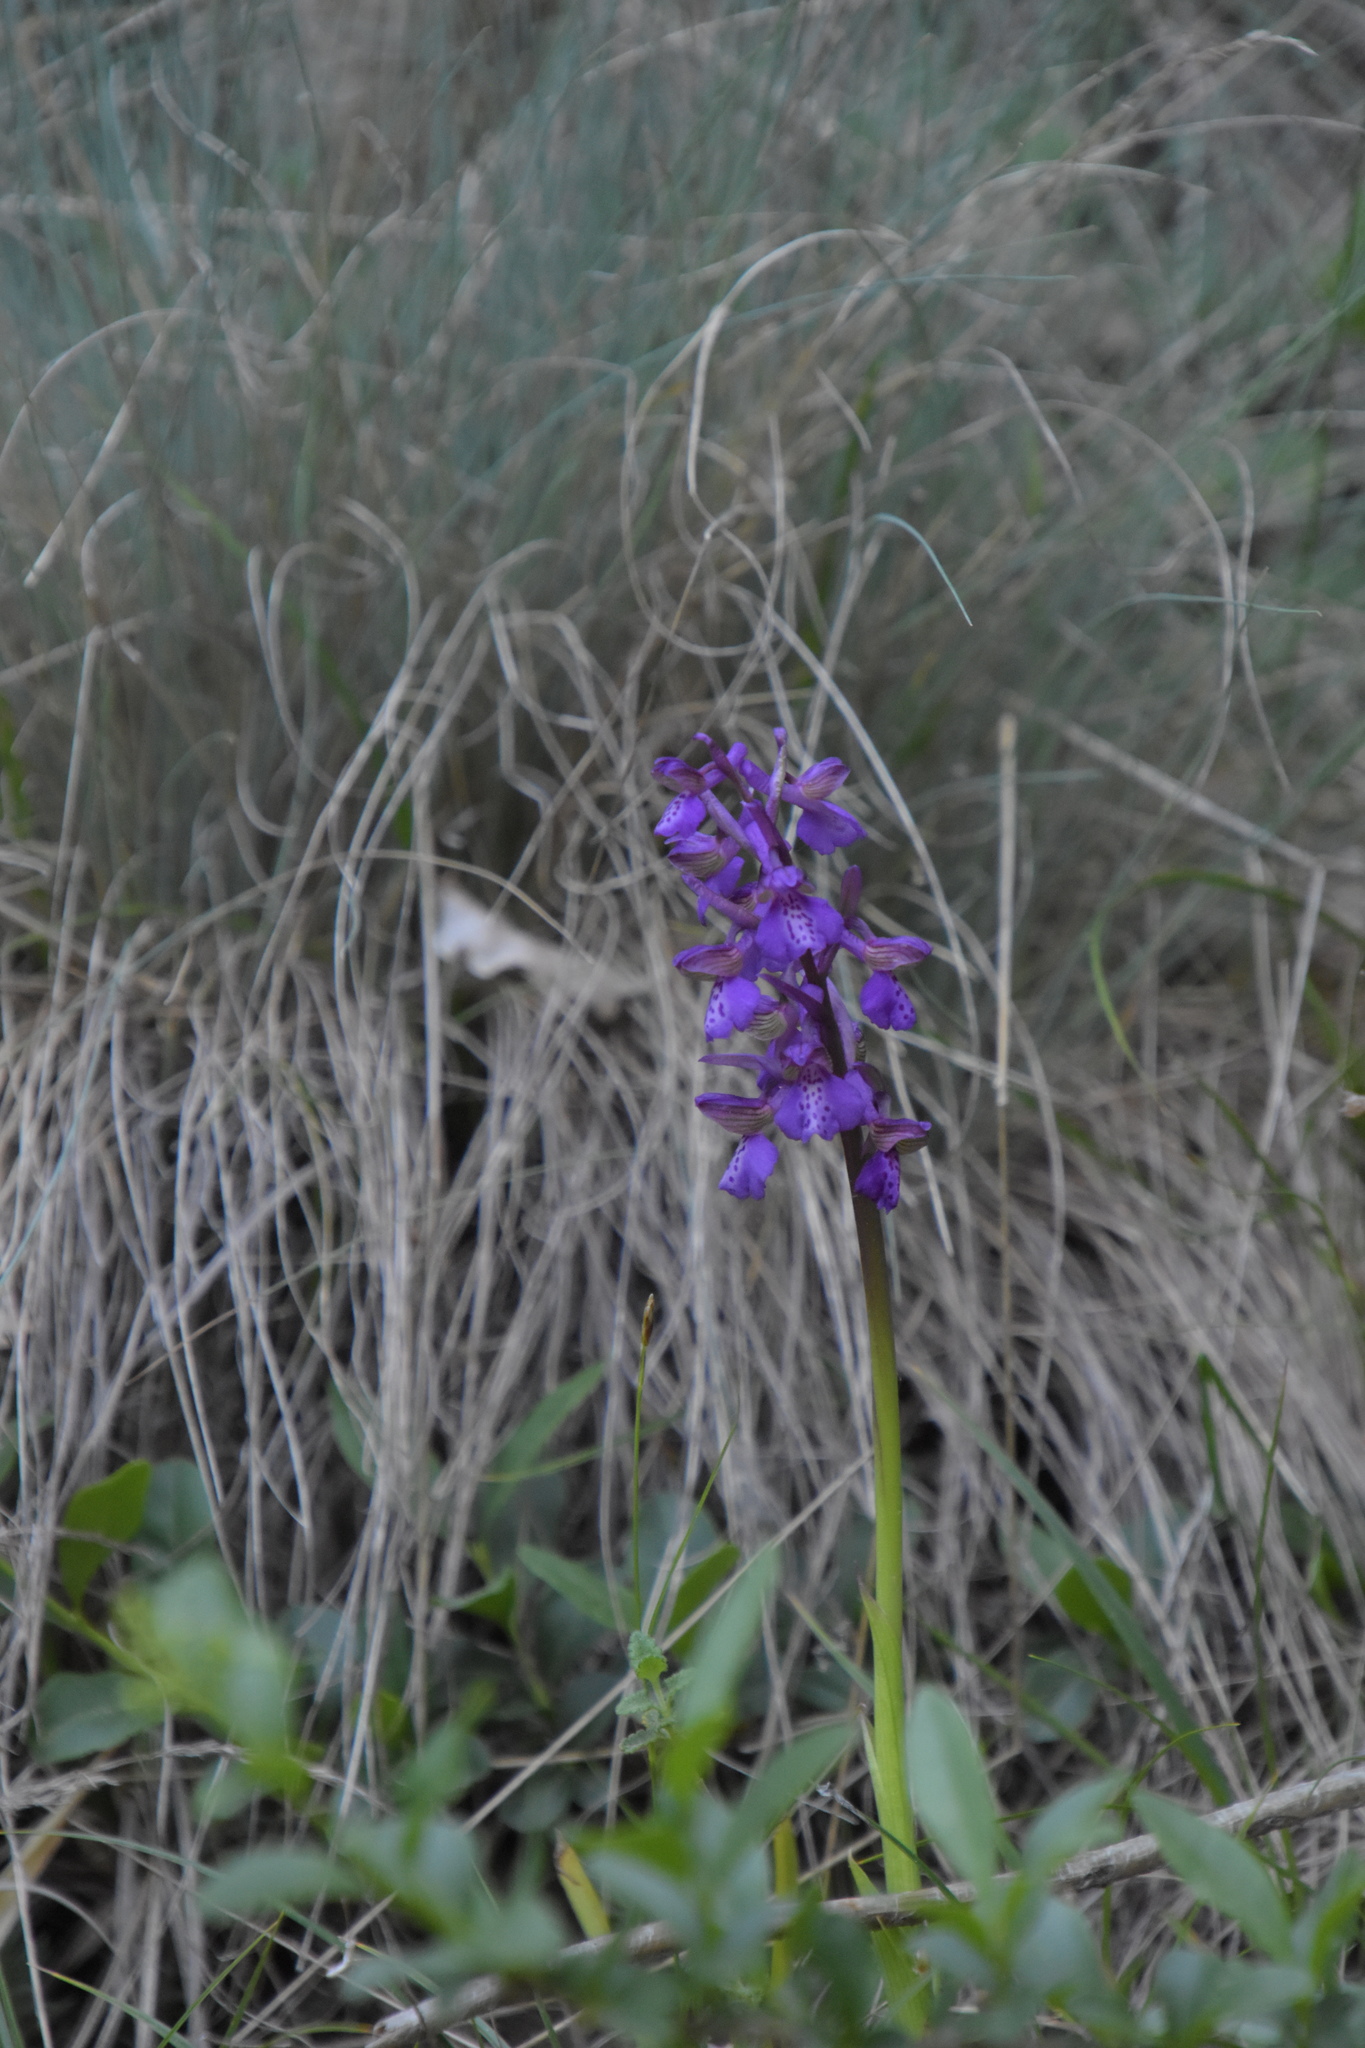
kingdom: Plantae
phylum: Tracheophyta
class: Liliopsida
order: Asparagales
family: Orchidaceae
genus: Anacamptis
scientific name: Anacamptis morio
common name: Green-winged orchid
